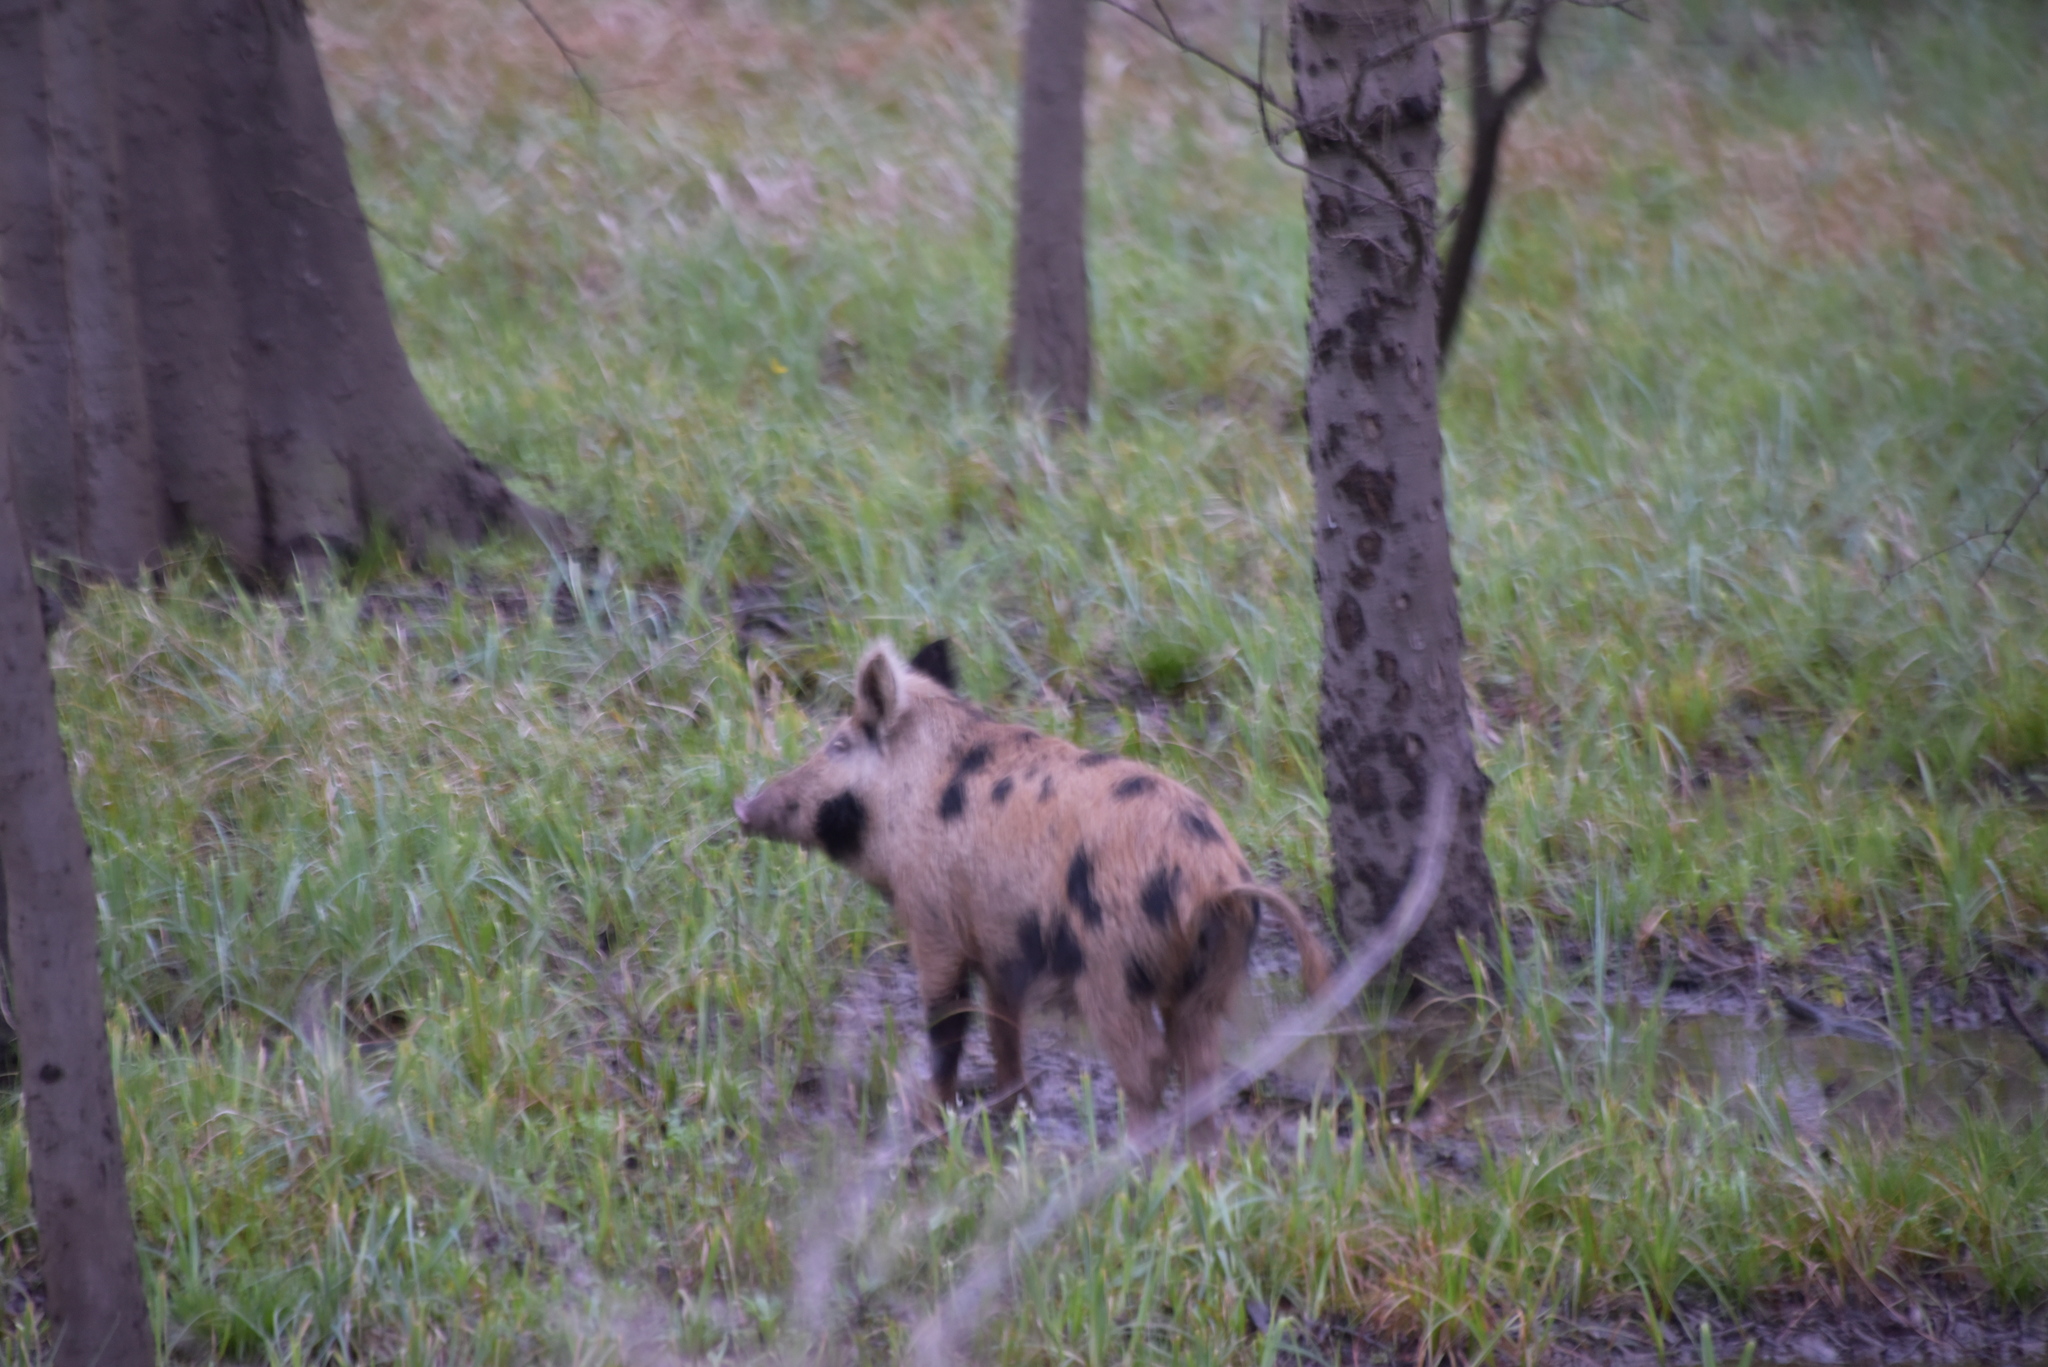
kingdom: Animalia
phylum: Chordata
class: Mammalia
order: Artiodactyla
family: Suidae
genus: Sus
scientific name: Sus scrofa
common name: Wild boar
